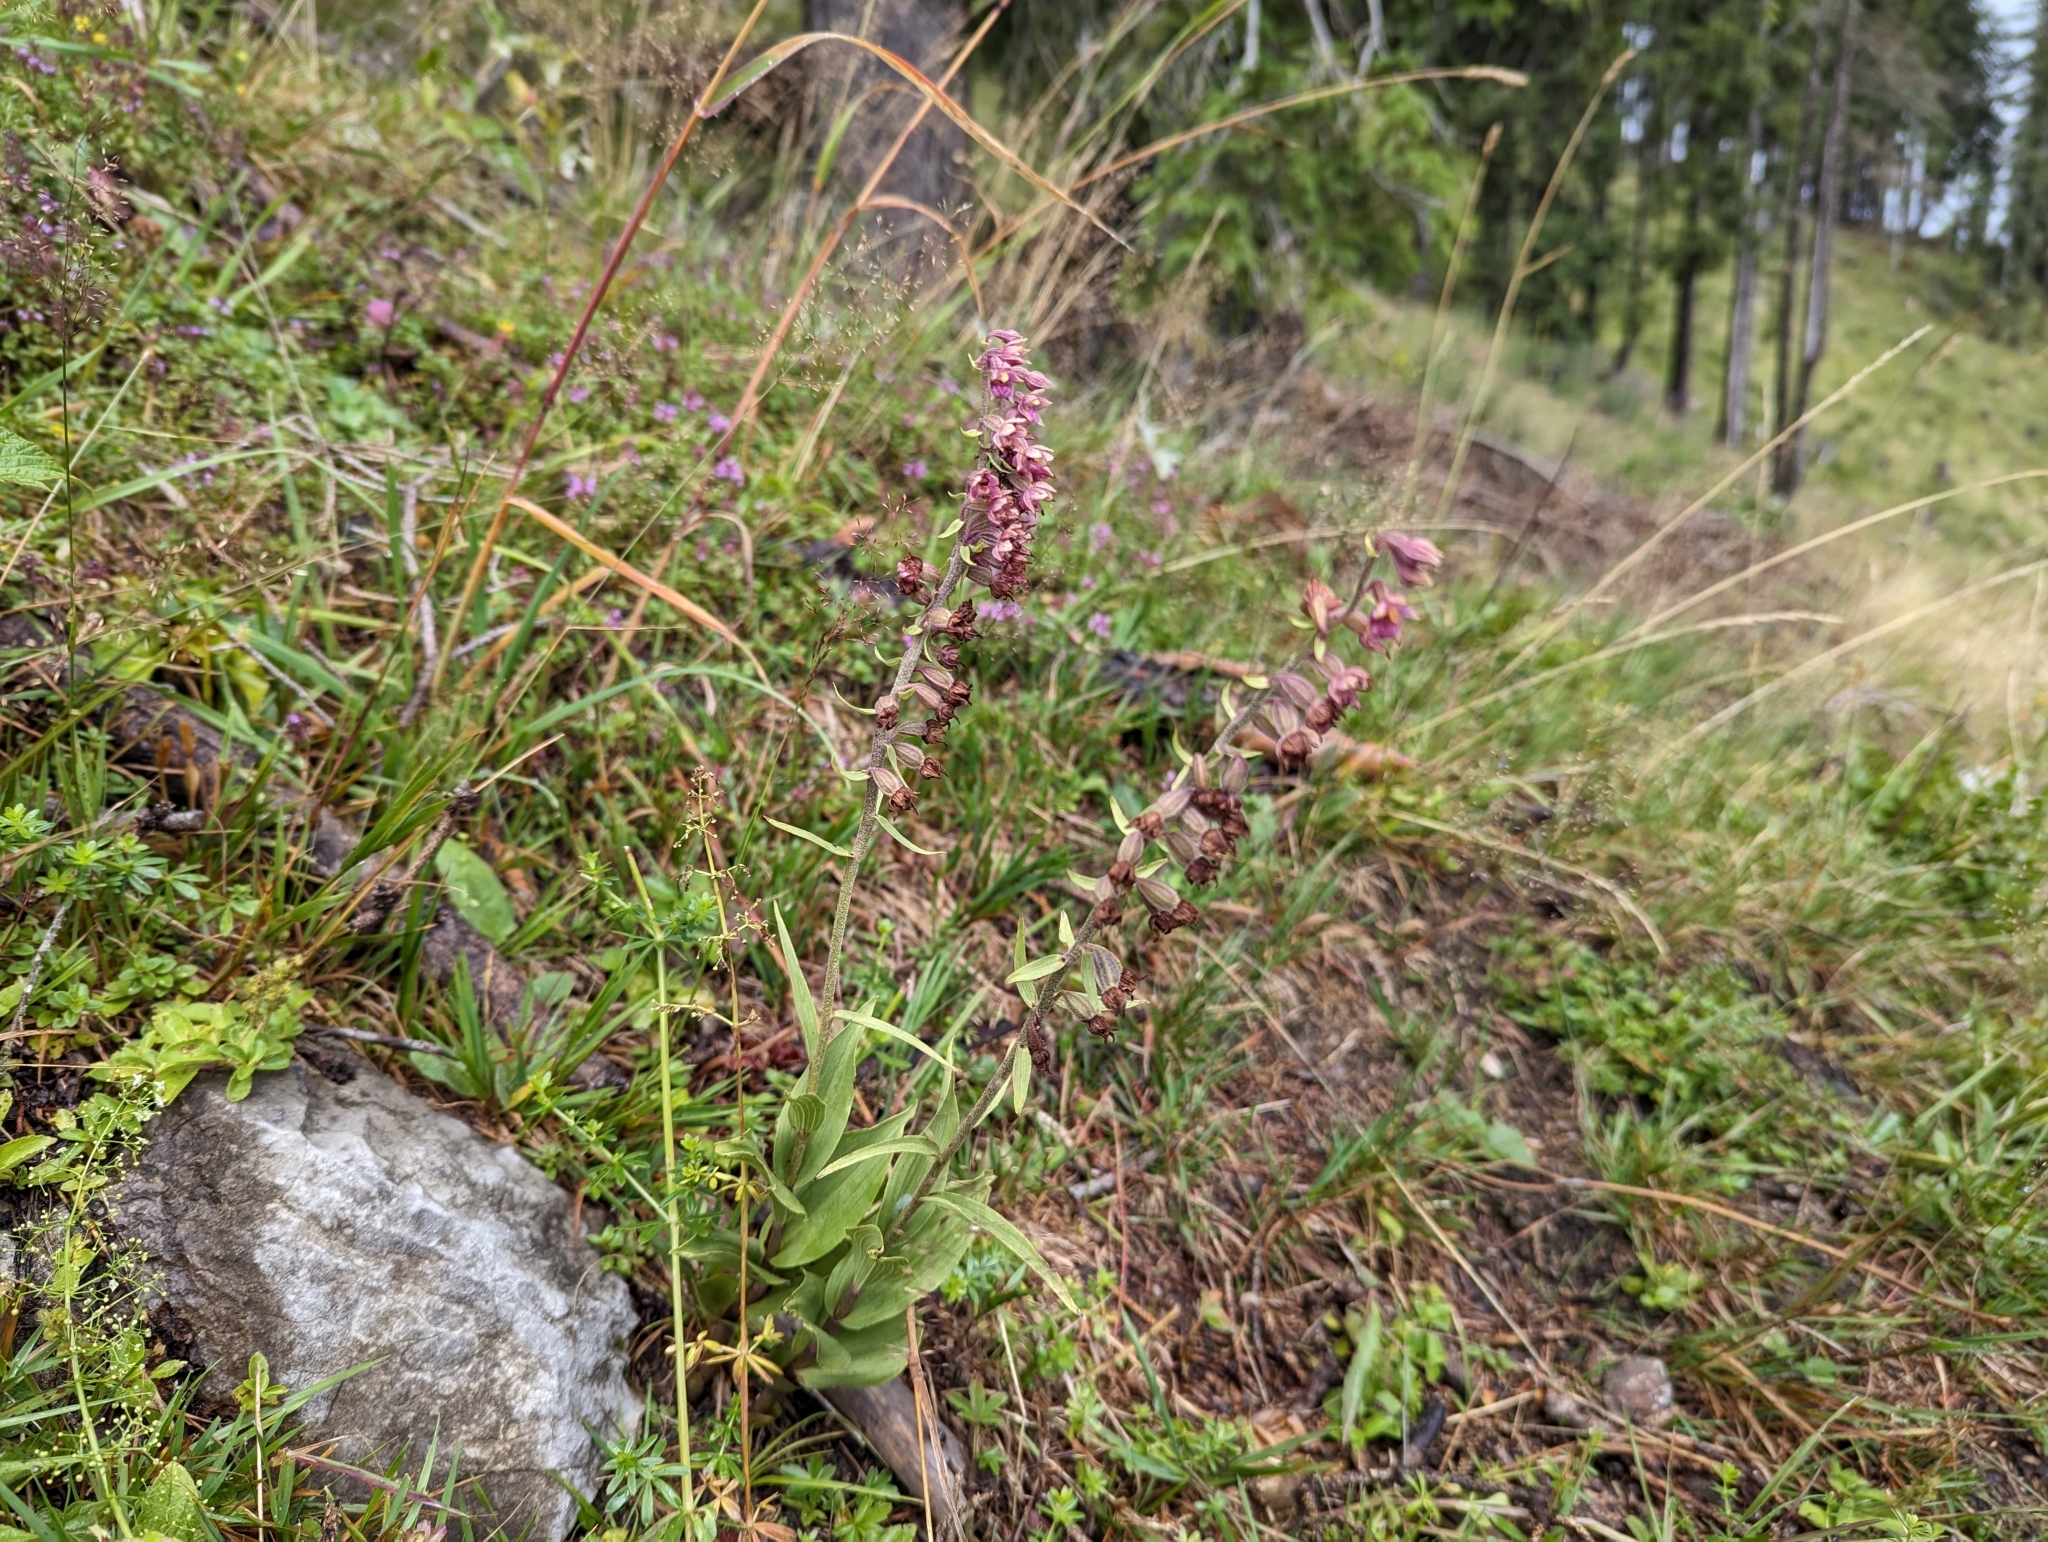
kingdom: Plantae
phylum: Tracheophyta
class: Liliopsida
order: Asparagales
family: Orchidaceae
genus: Epipactis
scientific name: Epipactis atrorubens
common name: Dark-red helleborine
